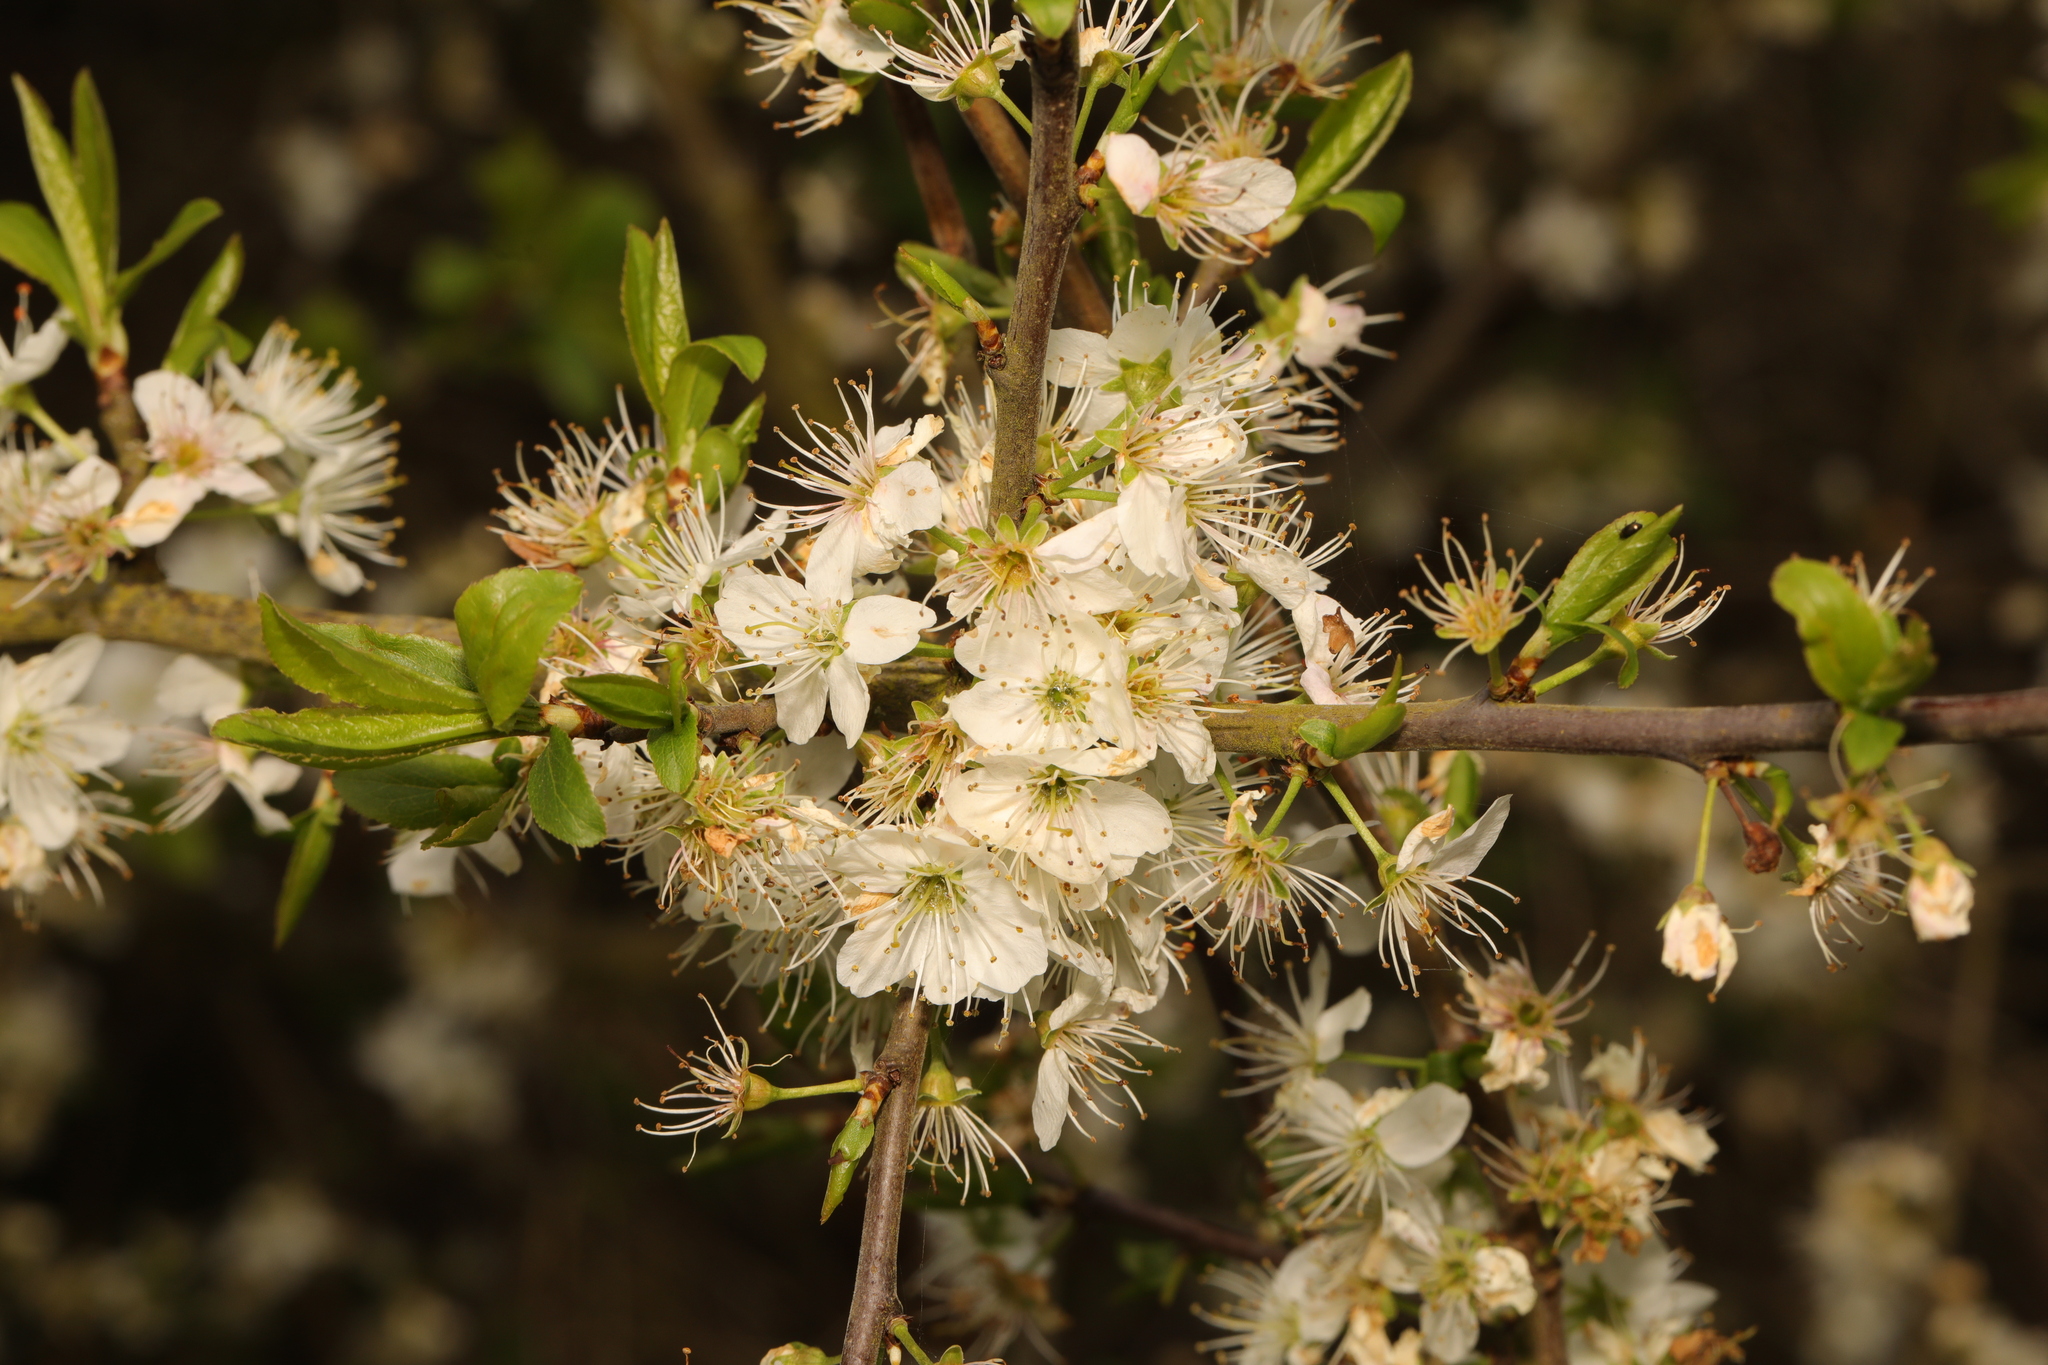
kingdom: Plantae
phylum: Tracheophyta
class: Magnoliopsida
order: Rosales
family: Rosaceae
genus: Prunus
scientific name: Prunus spinosa
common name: Blackthorn
